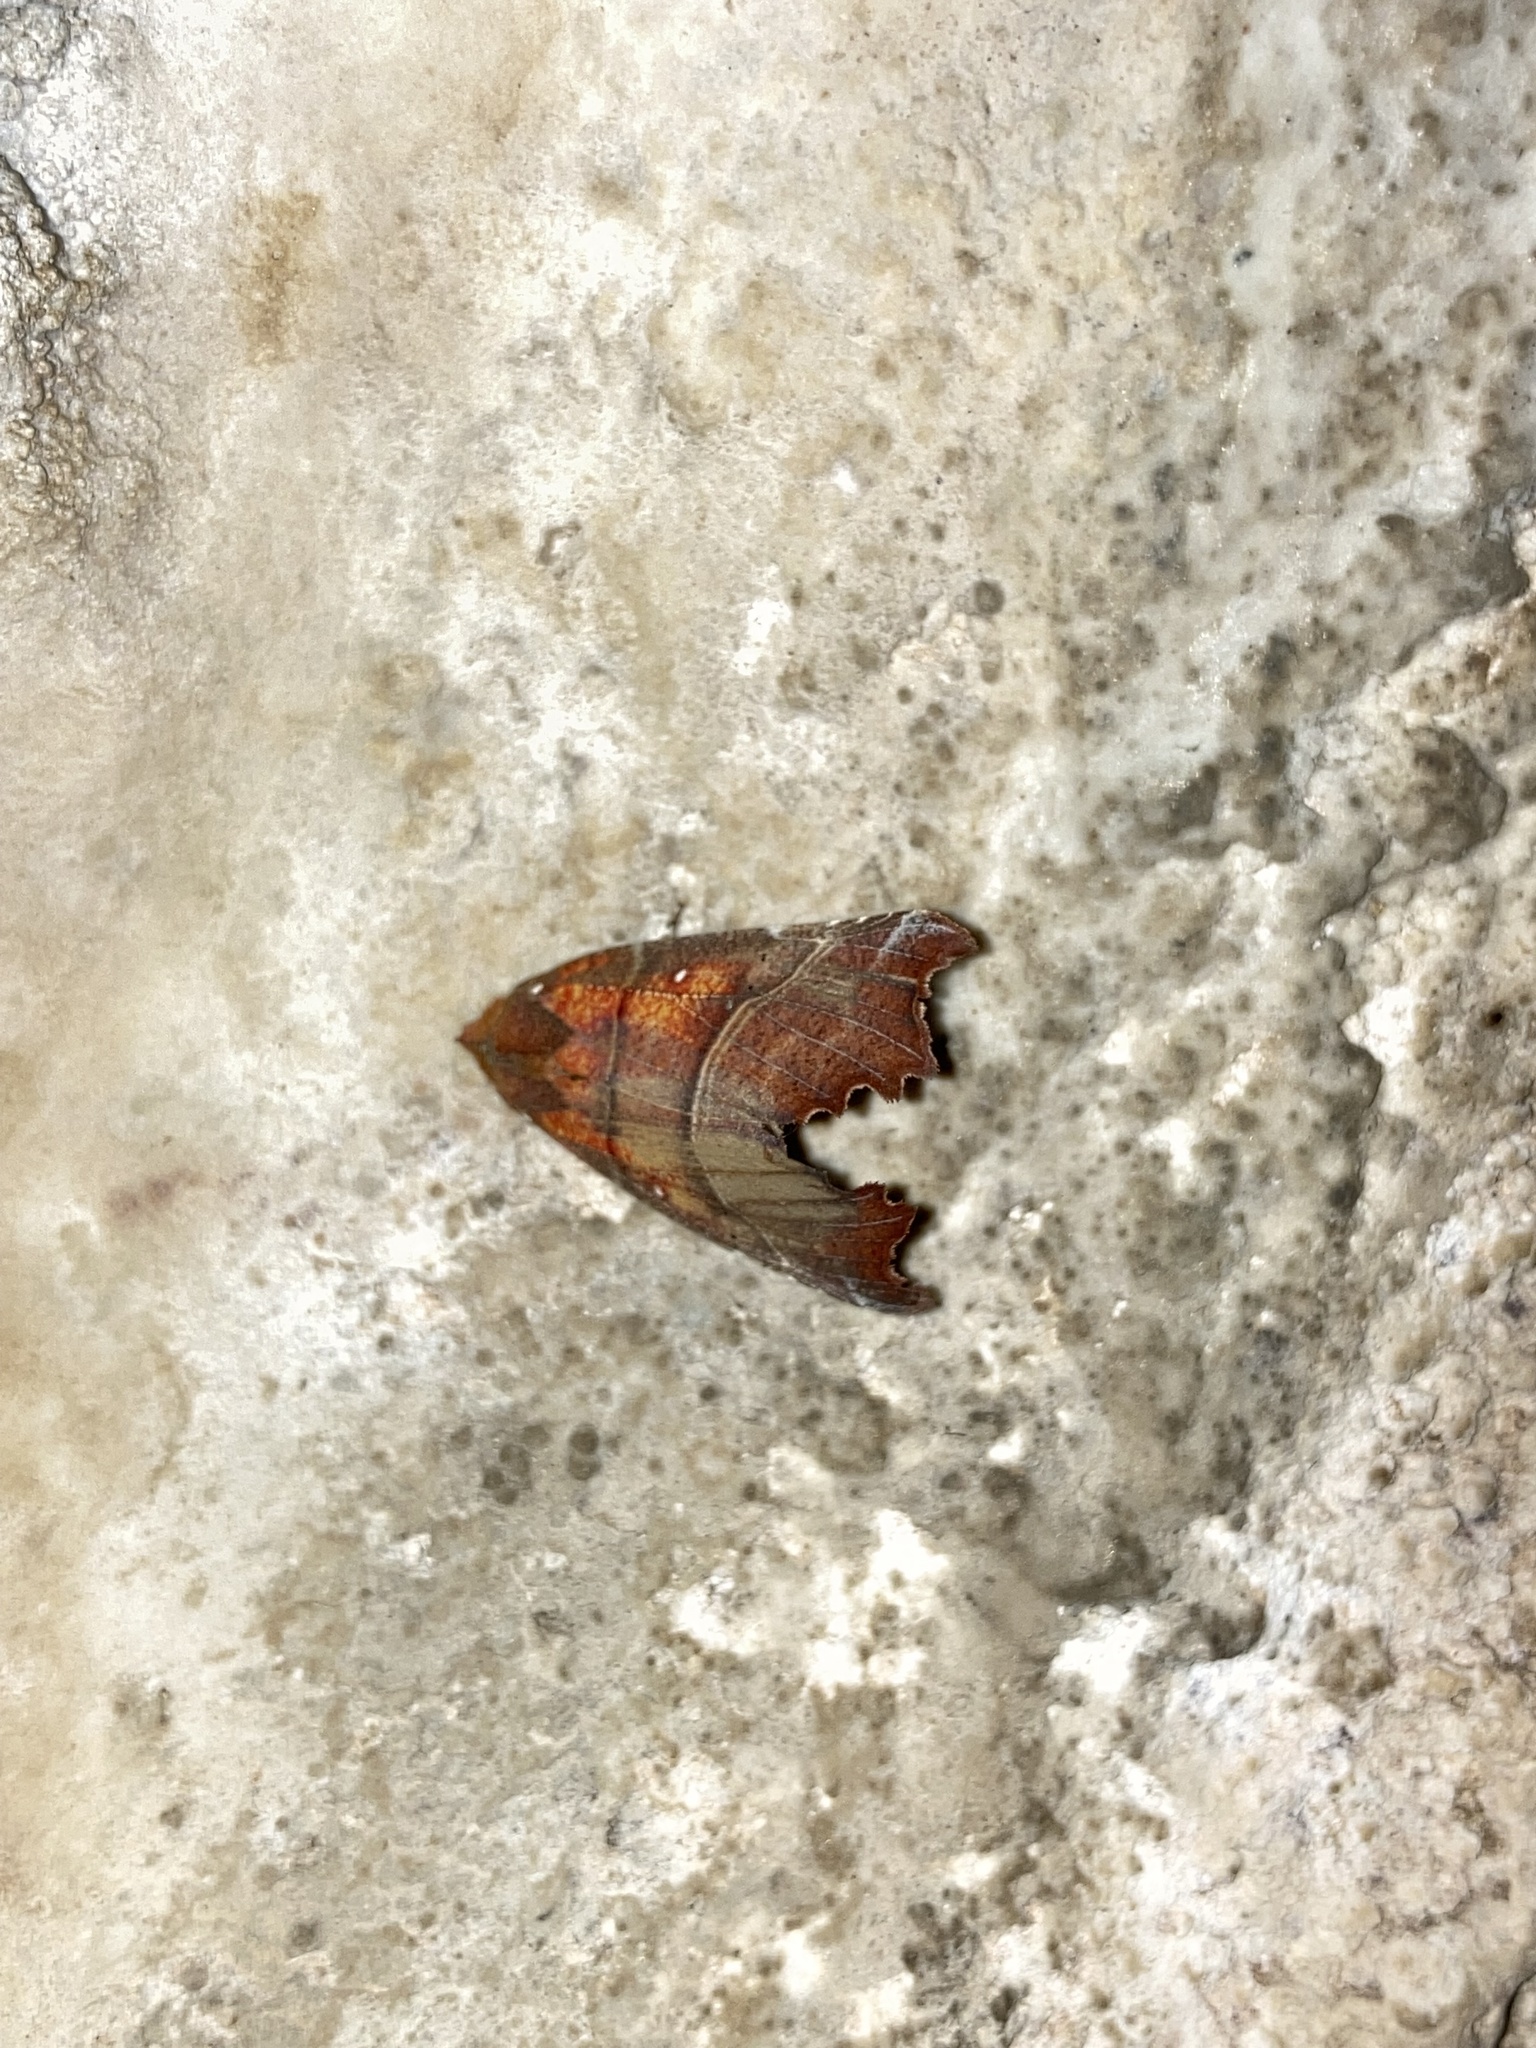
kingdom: Animalia
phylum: Arthropoda
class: Insecta
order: Lepidoptera
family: Erebidae
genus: Scoliopteryx
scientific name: Scoliopteryx libatrix
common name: Herald
